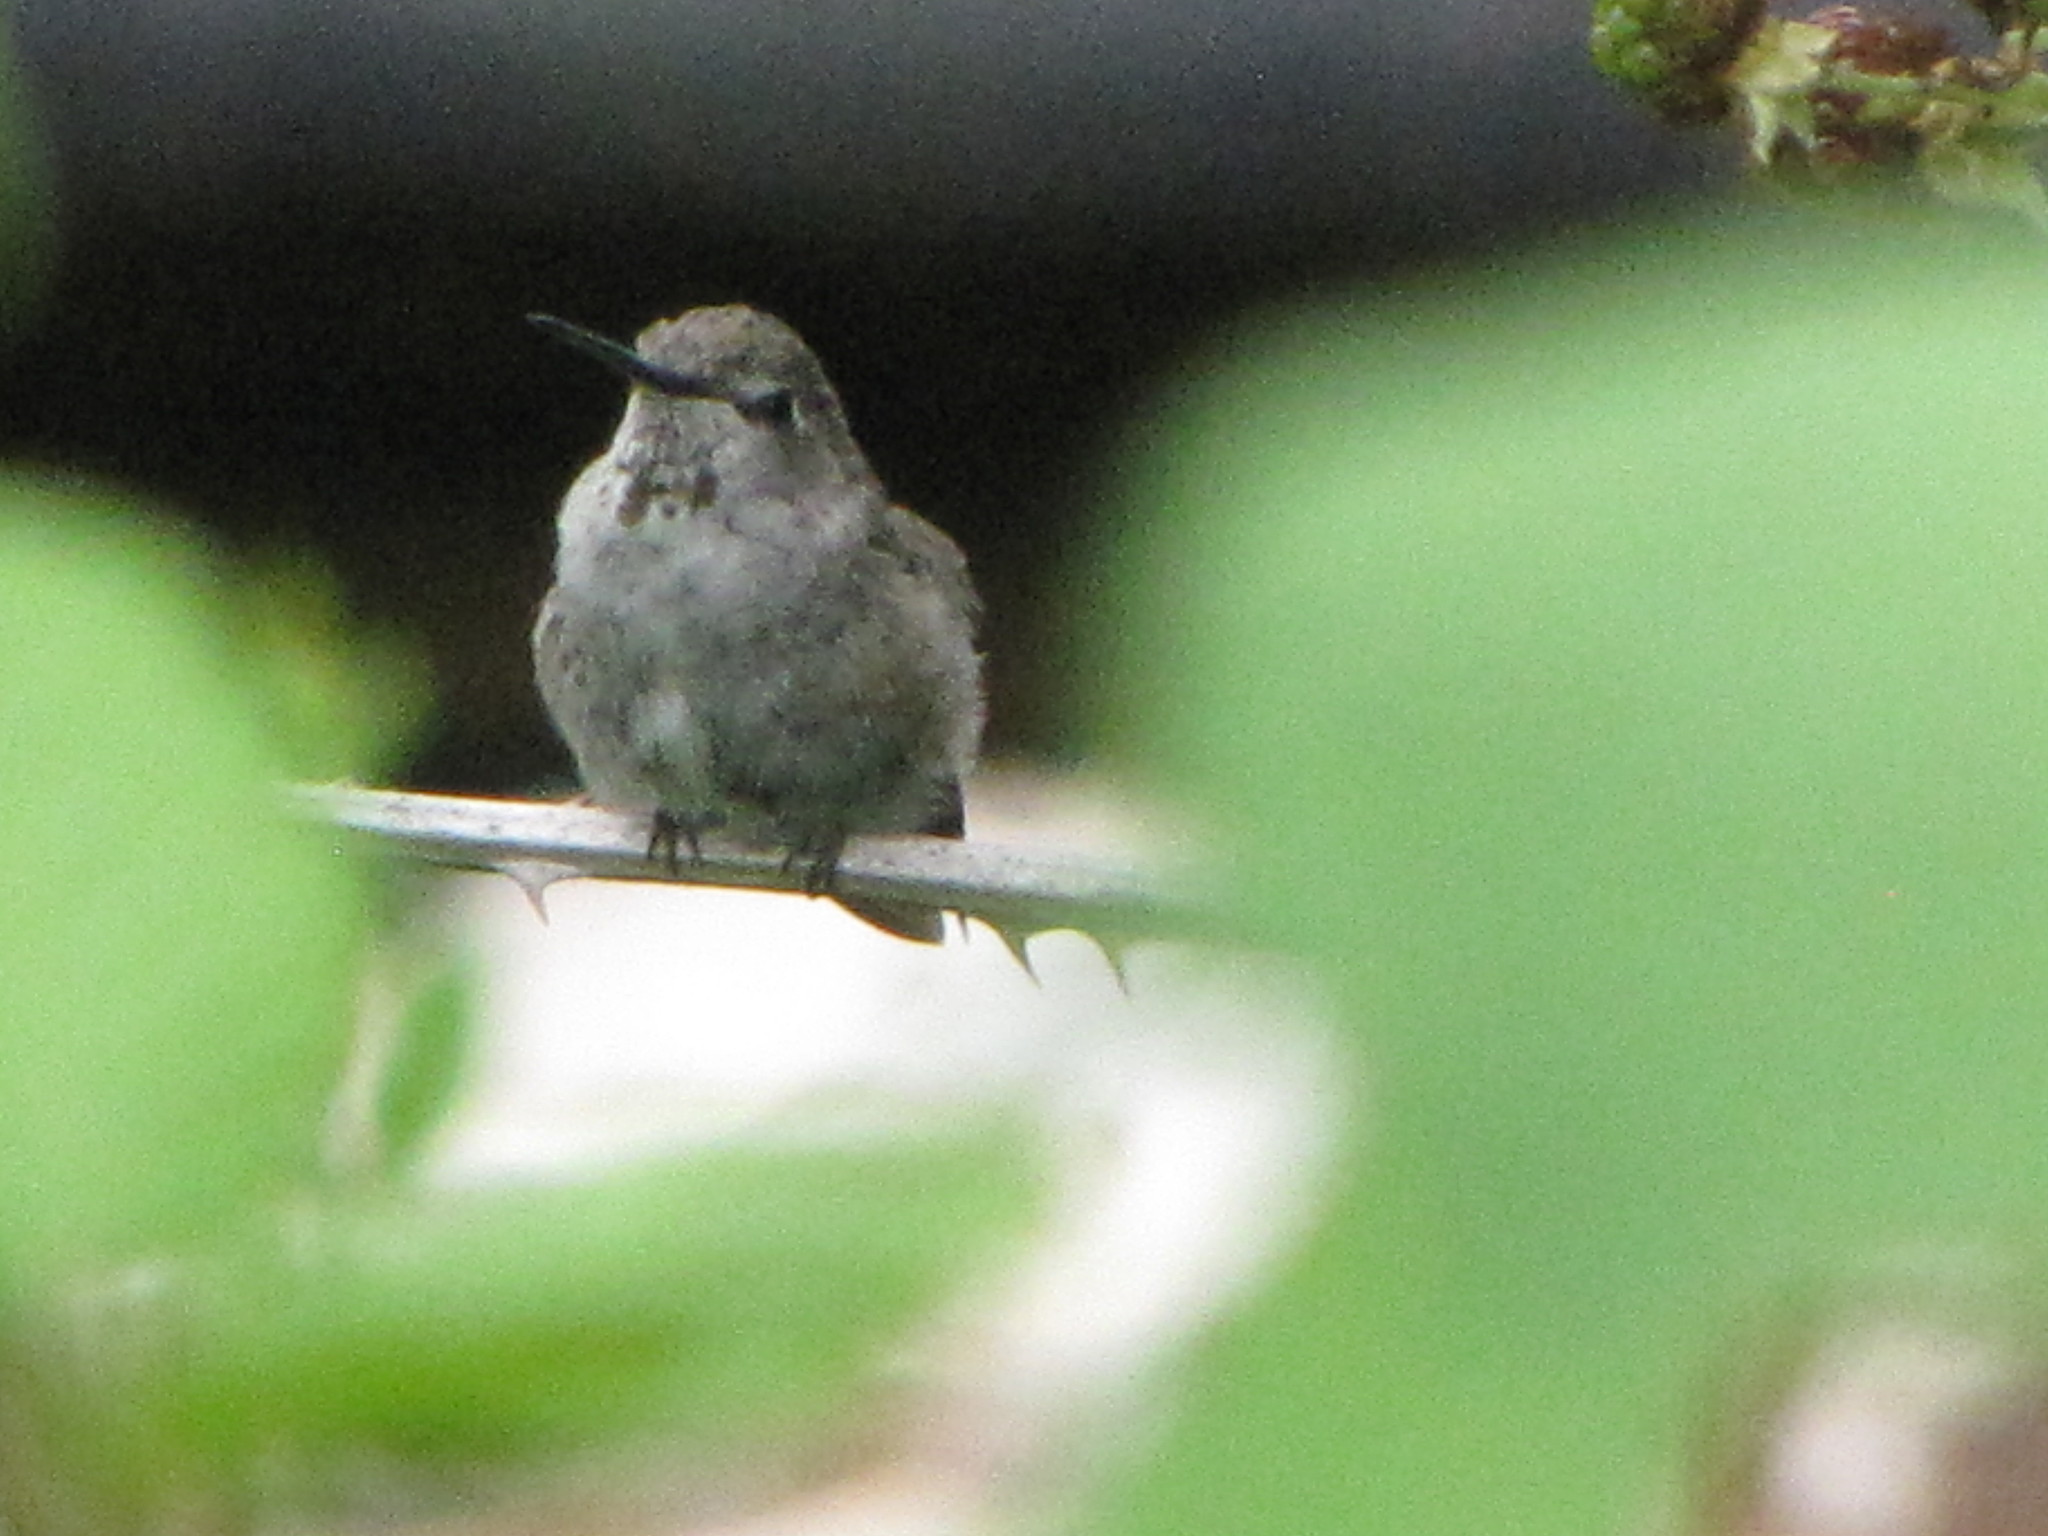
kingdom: Animalia
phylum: Chordata
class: Aves
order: Apodiformes
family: Trochilidae
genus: Calypte
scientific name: Calypte anna
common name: Anna's hummingbird
